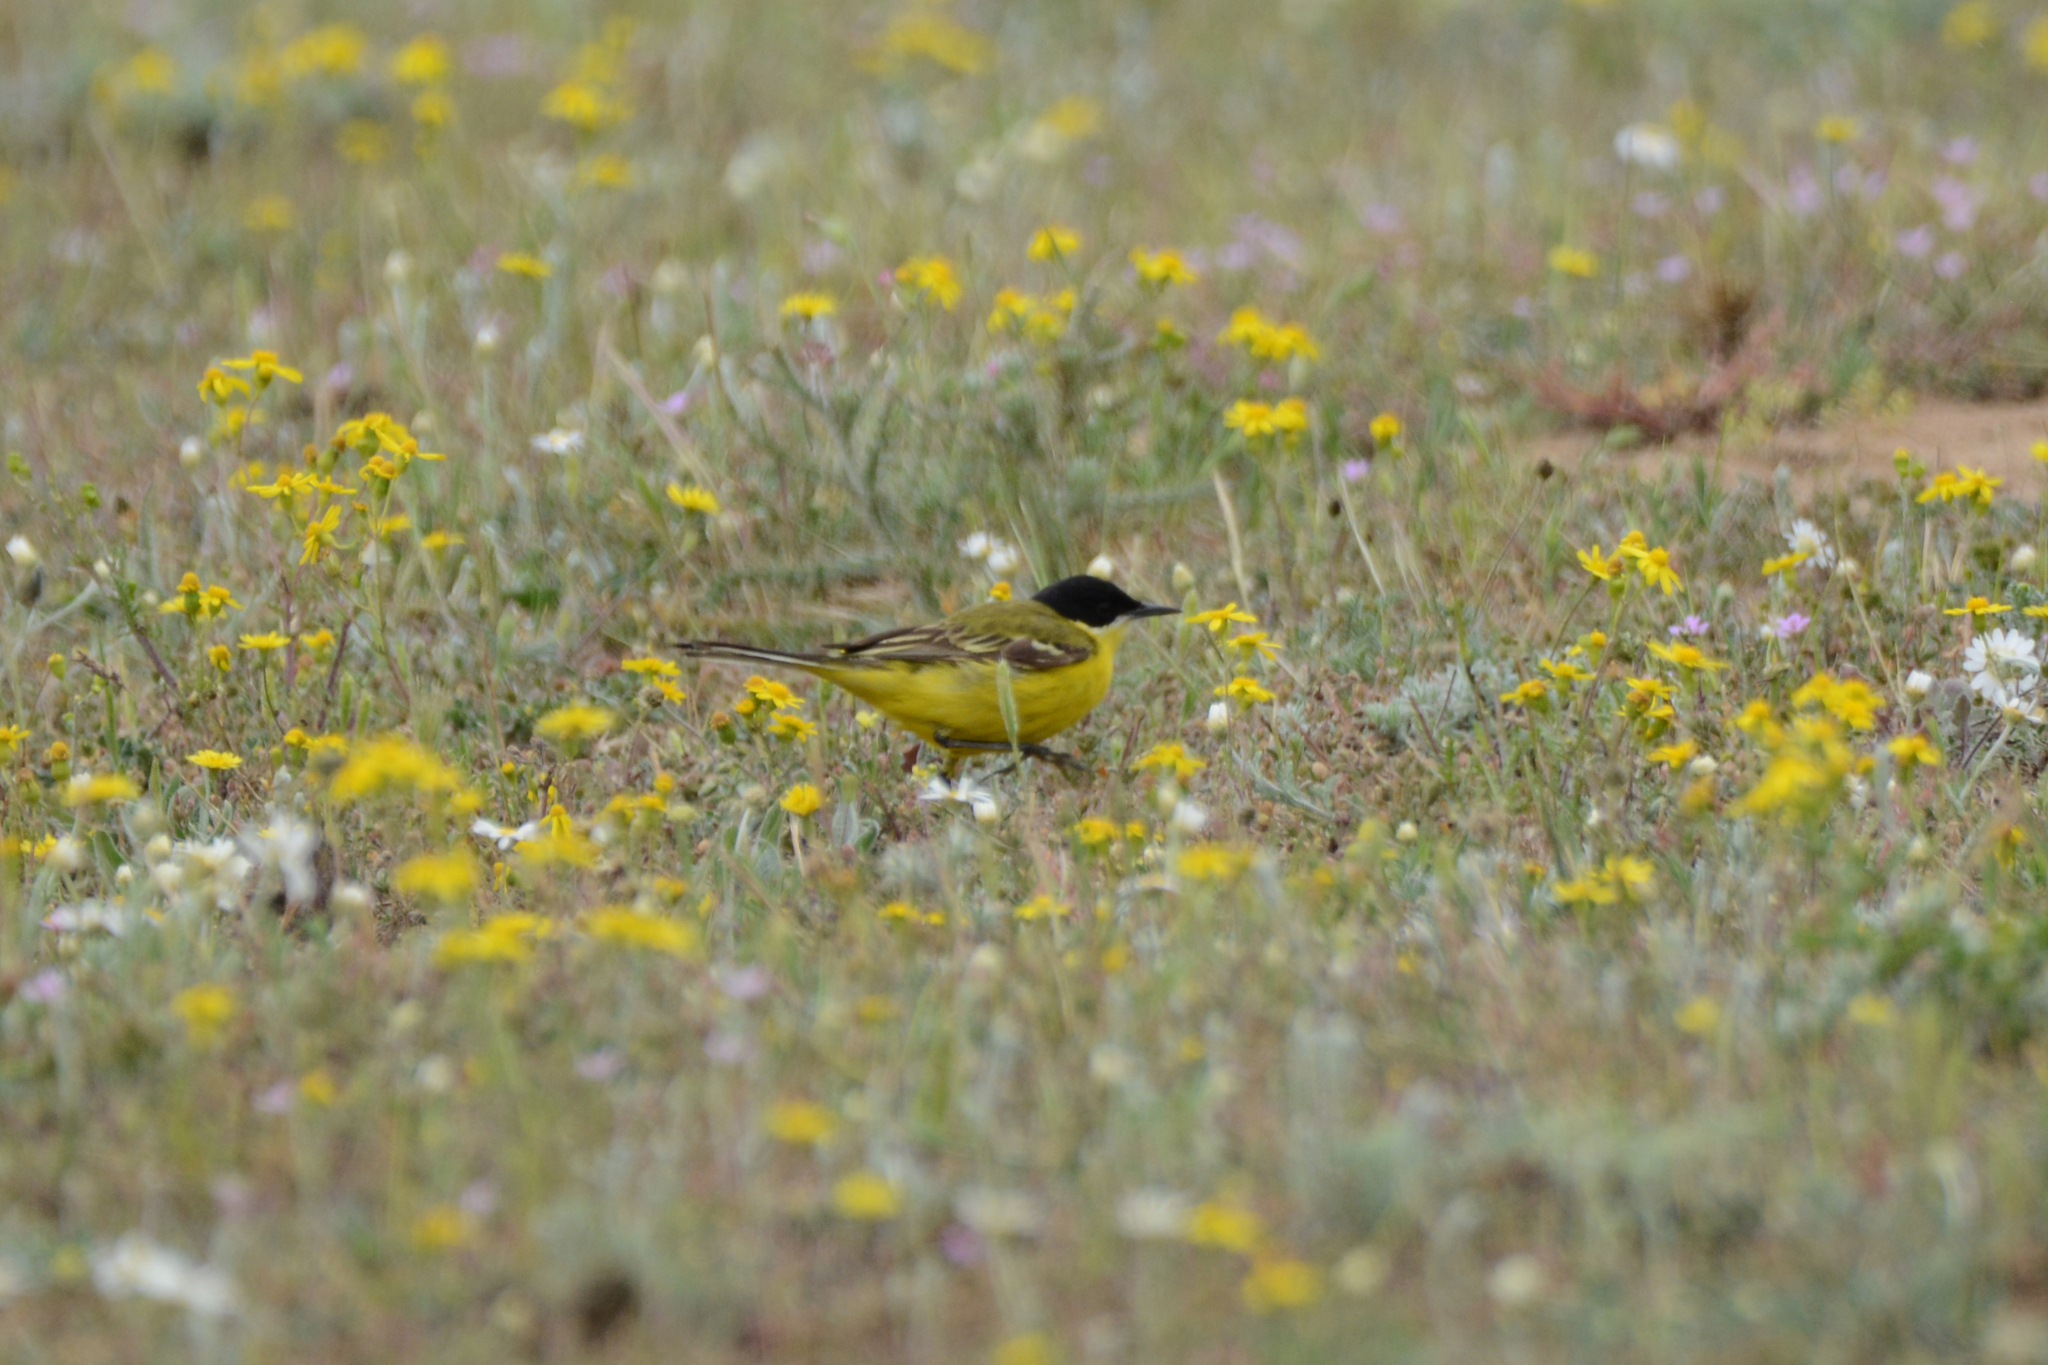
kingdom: Animalia
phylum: Chordata
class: Aves
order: Passeriformes
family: Motacillidae
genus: Motacilla
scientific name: Motacilla flava
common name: Western yellow wagtail
